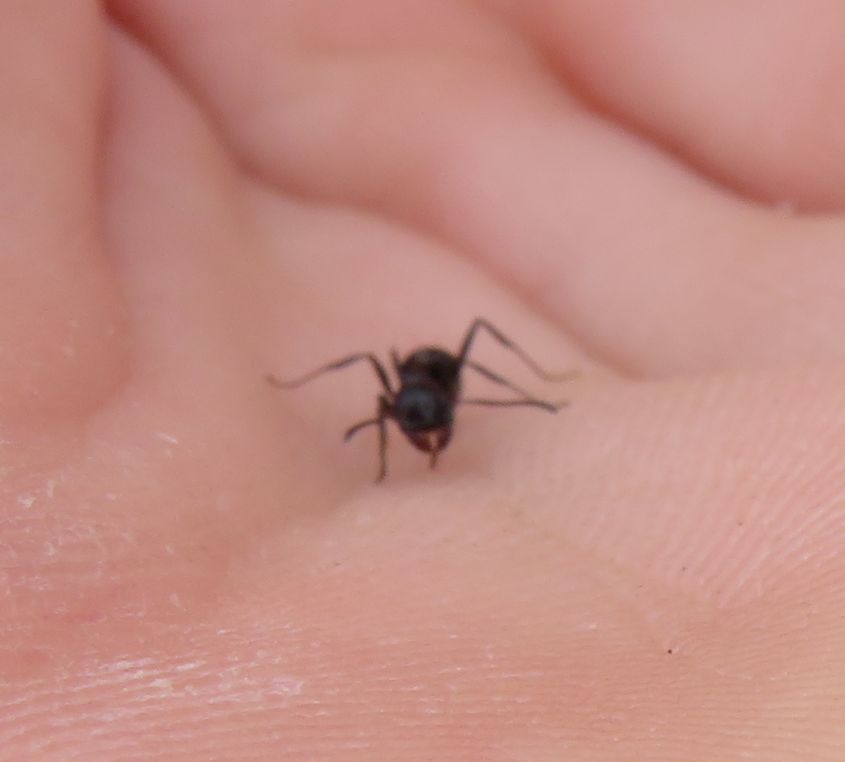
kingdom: Animalia
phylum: Arthropoda
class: Insecta
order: Hymenoptera
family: Formicidae
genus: Messor
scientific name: Messor capensis
